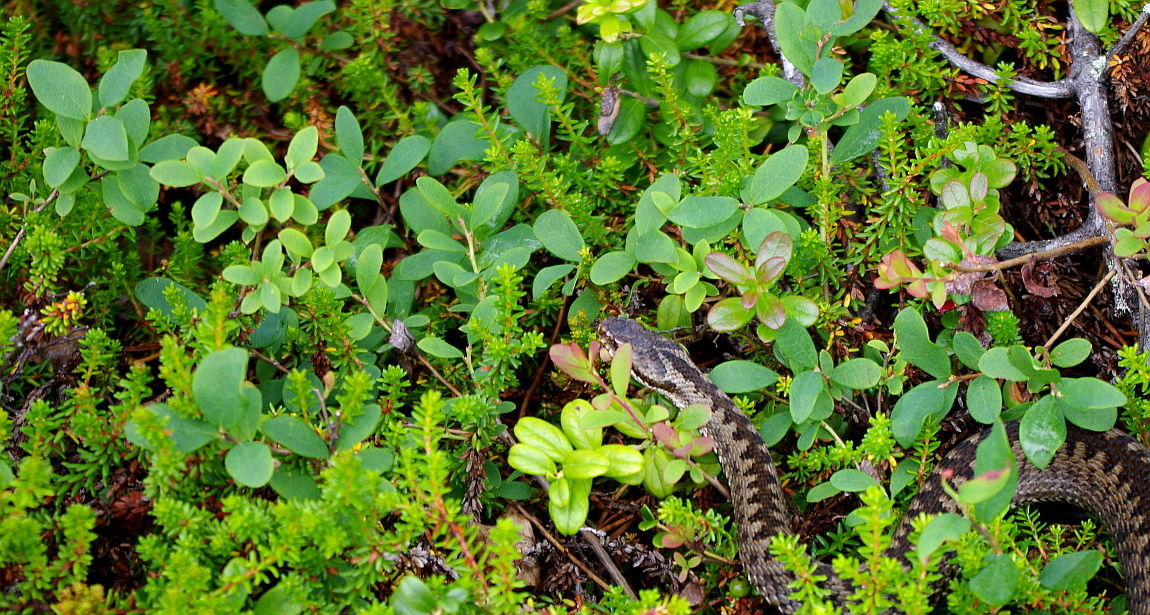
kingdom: Plantae
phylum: Tracheophyta
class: Magnoliopsida
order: Ericales
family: Ericaceae
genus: Vaccinium
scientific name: Vaccinium uliginosum
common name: Bog bilberry
